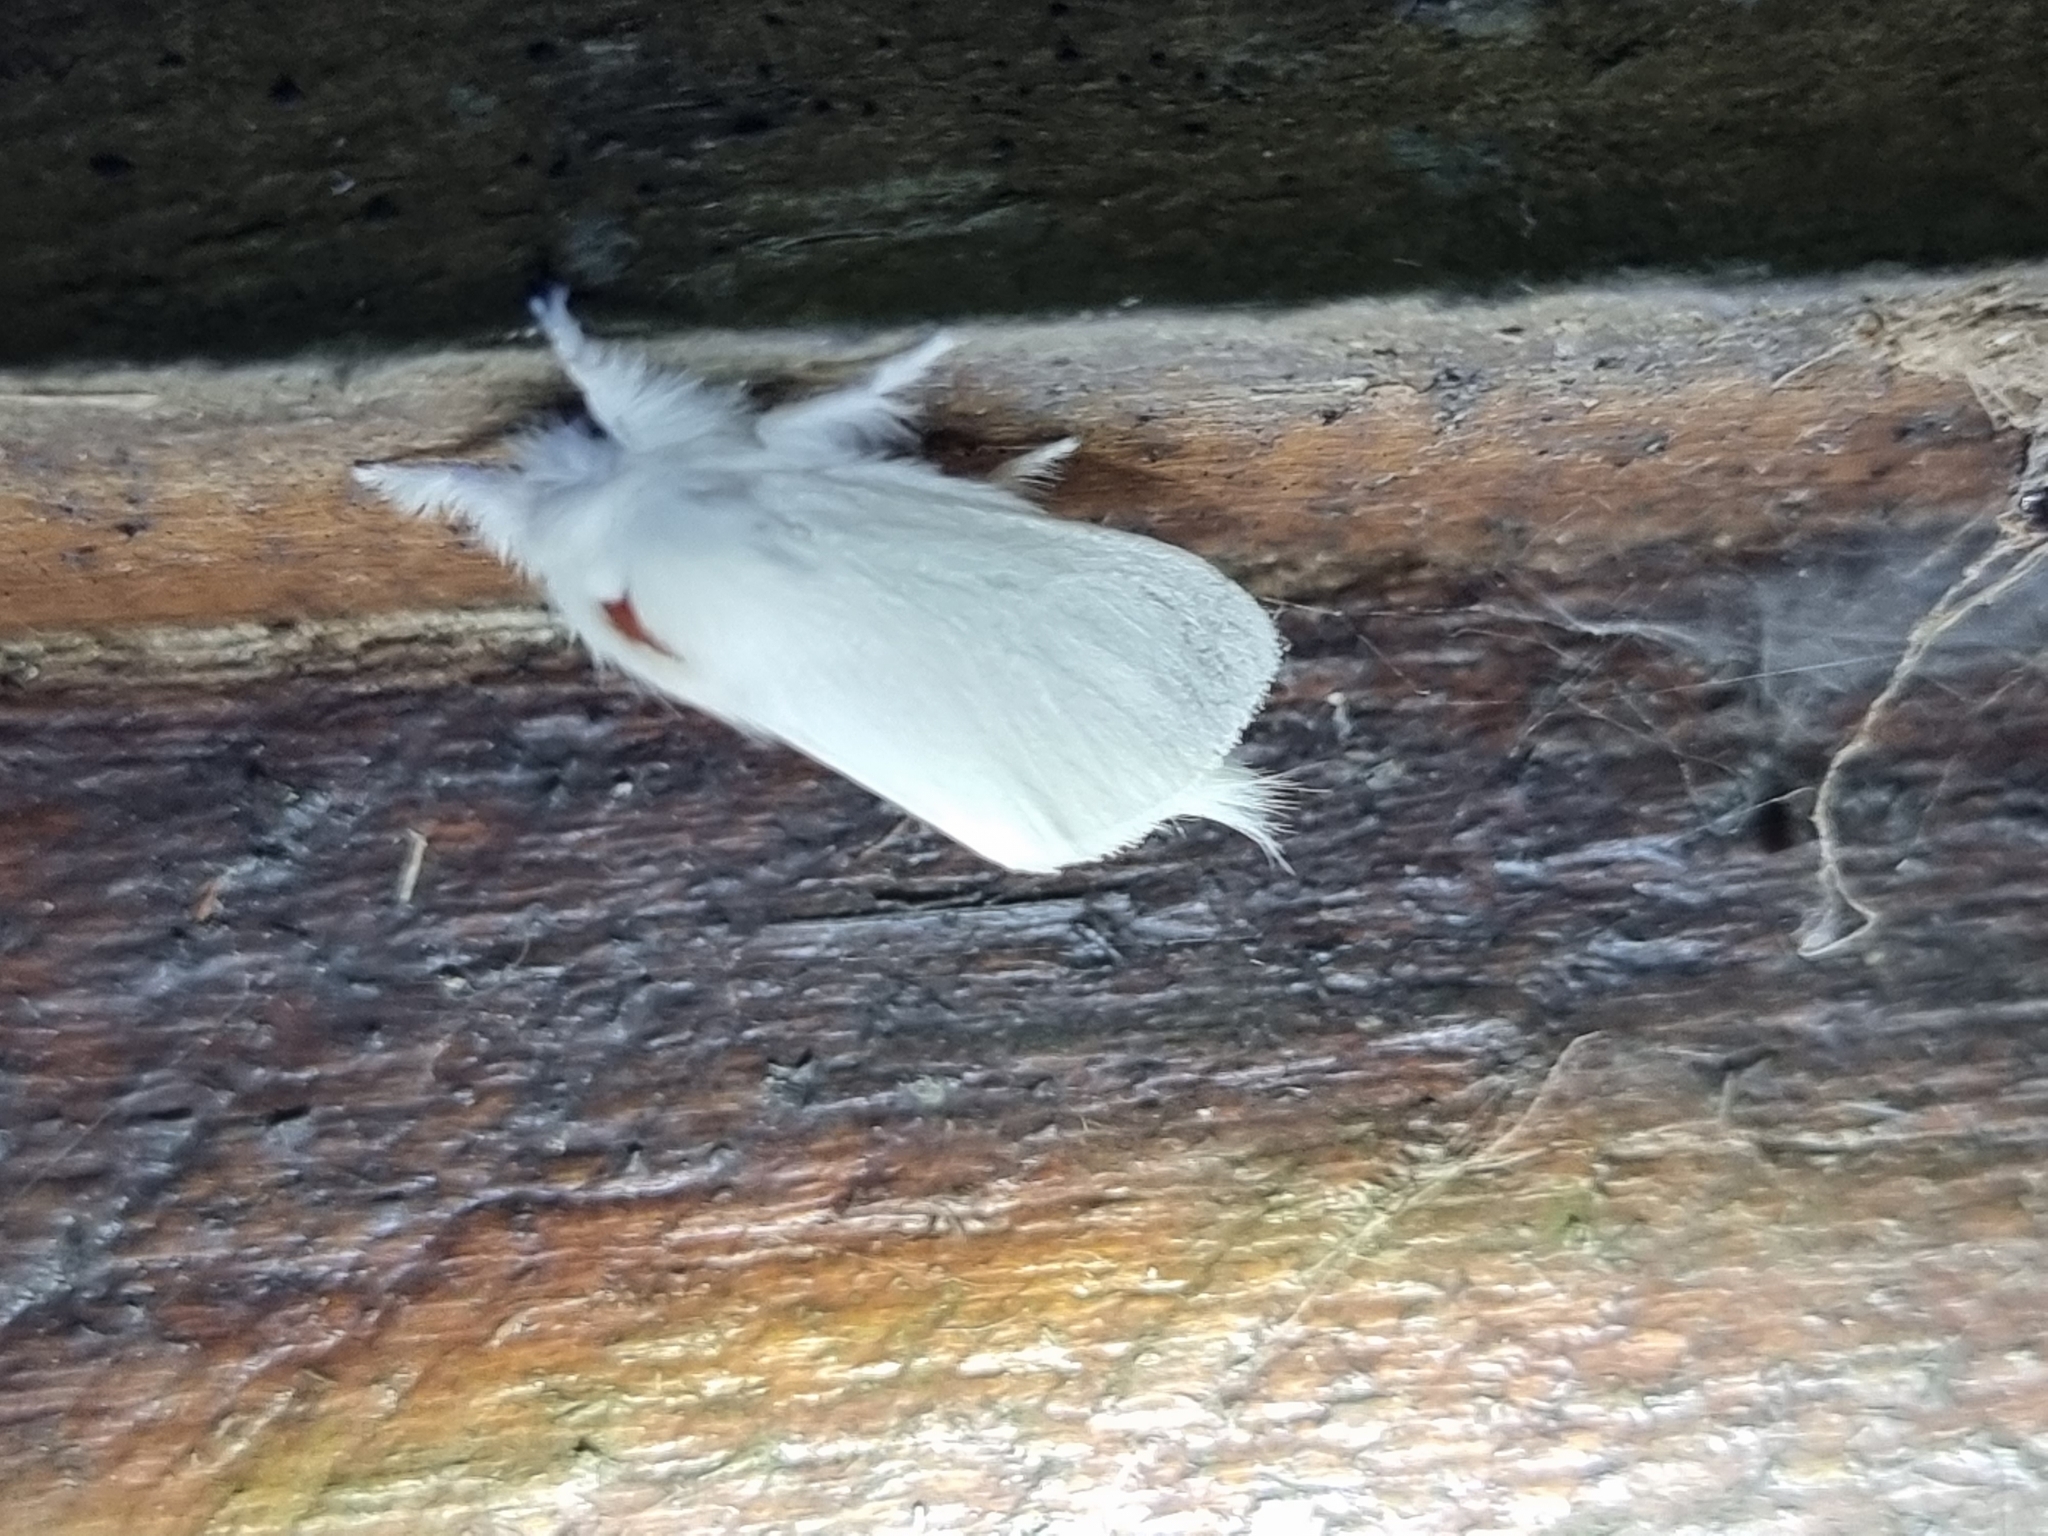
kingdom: Animalia
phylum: Arthropoda
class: Insecta
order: Lepidoptera
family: Notodontidae
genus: Trichiocercus
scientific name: Trichiocercus sparshalli
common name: Long-tailed satin
